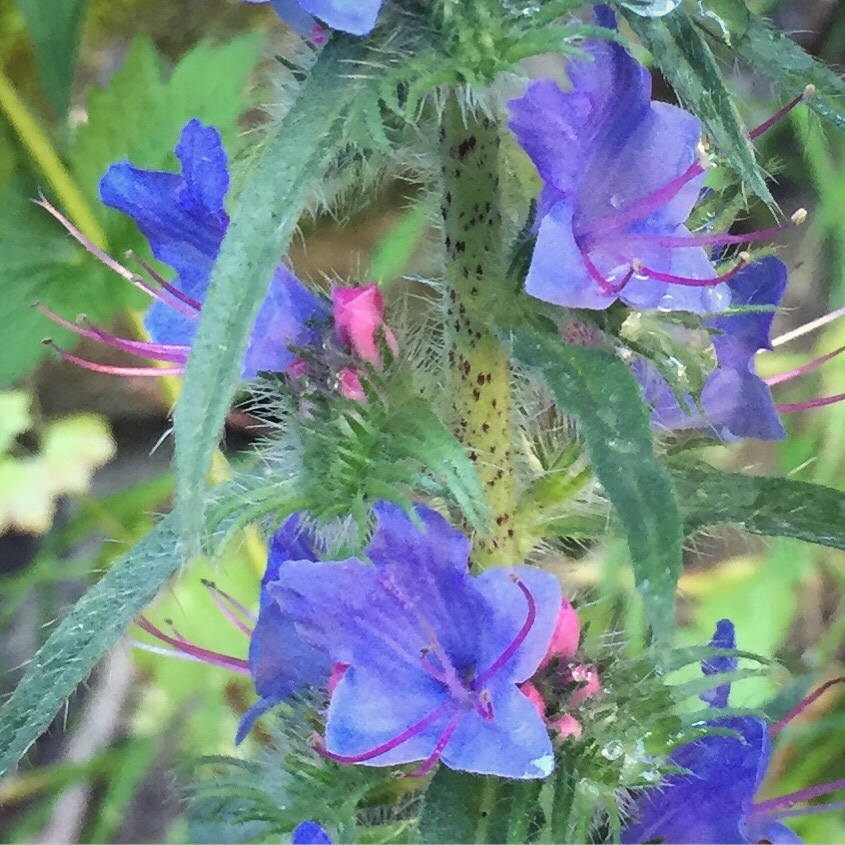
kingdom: Plantae
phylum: Tracheophyta
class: Magnoliopsida
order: Boraginales
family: Boraginaceae
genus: Echium
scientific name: Echium vulgare
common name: Common viper's bugloss
